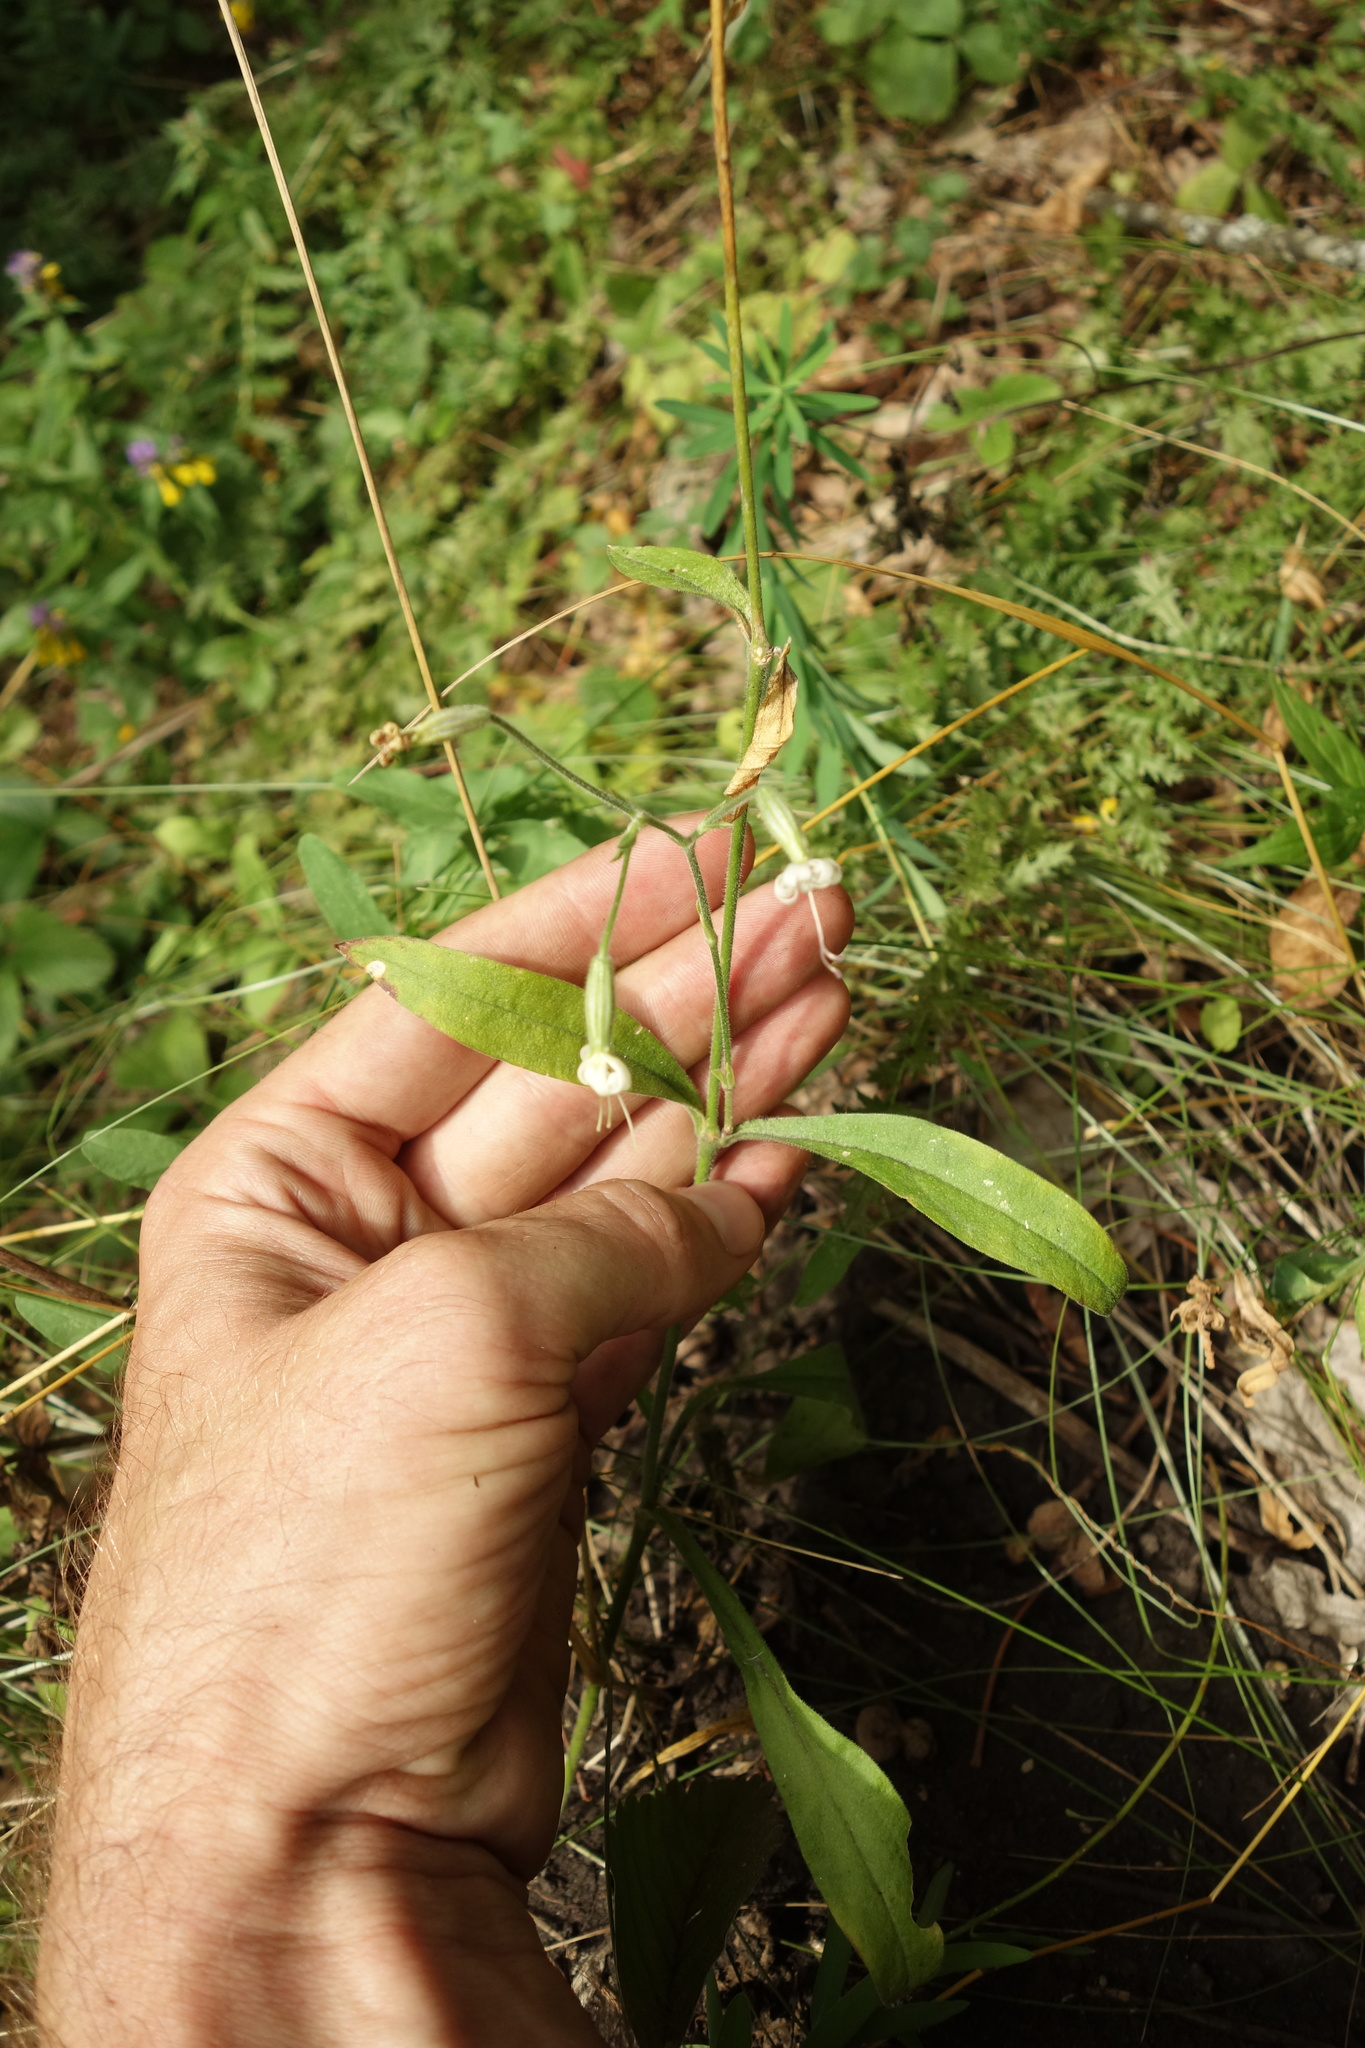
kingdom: Plantae
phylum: Tracheophyta
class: Magnoliopsida
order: Caryophyllales
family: Caryophyllaceae
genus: Silene
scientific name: Silene nutans
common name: Nottingham catchfly
